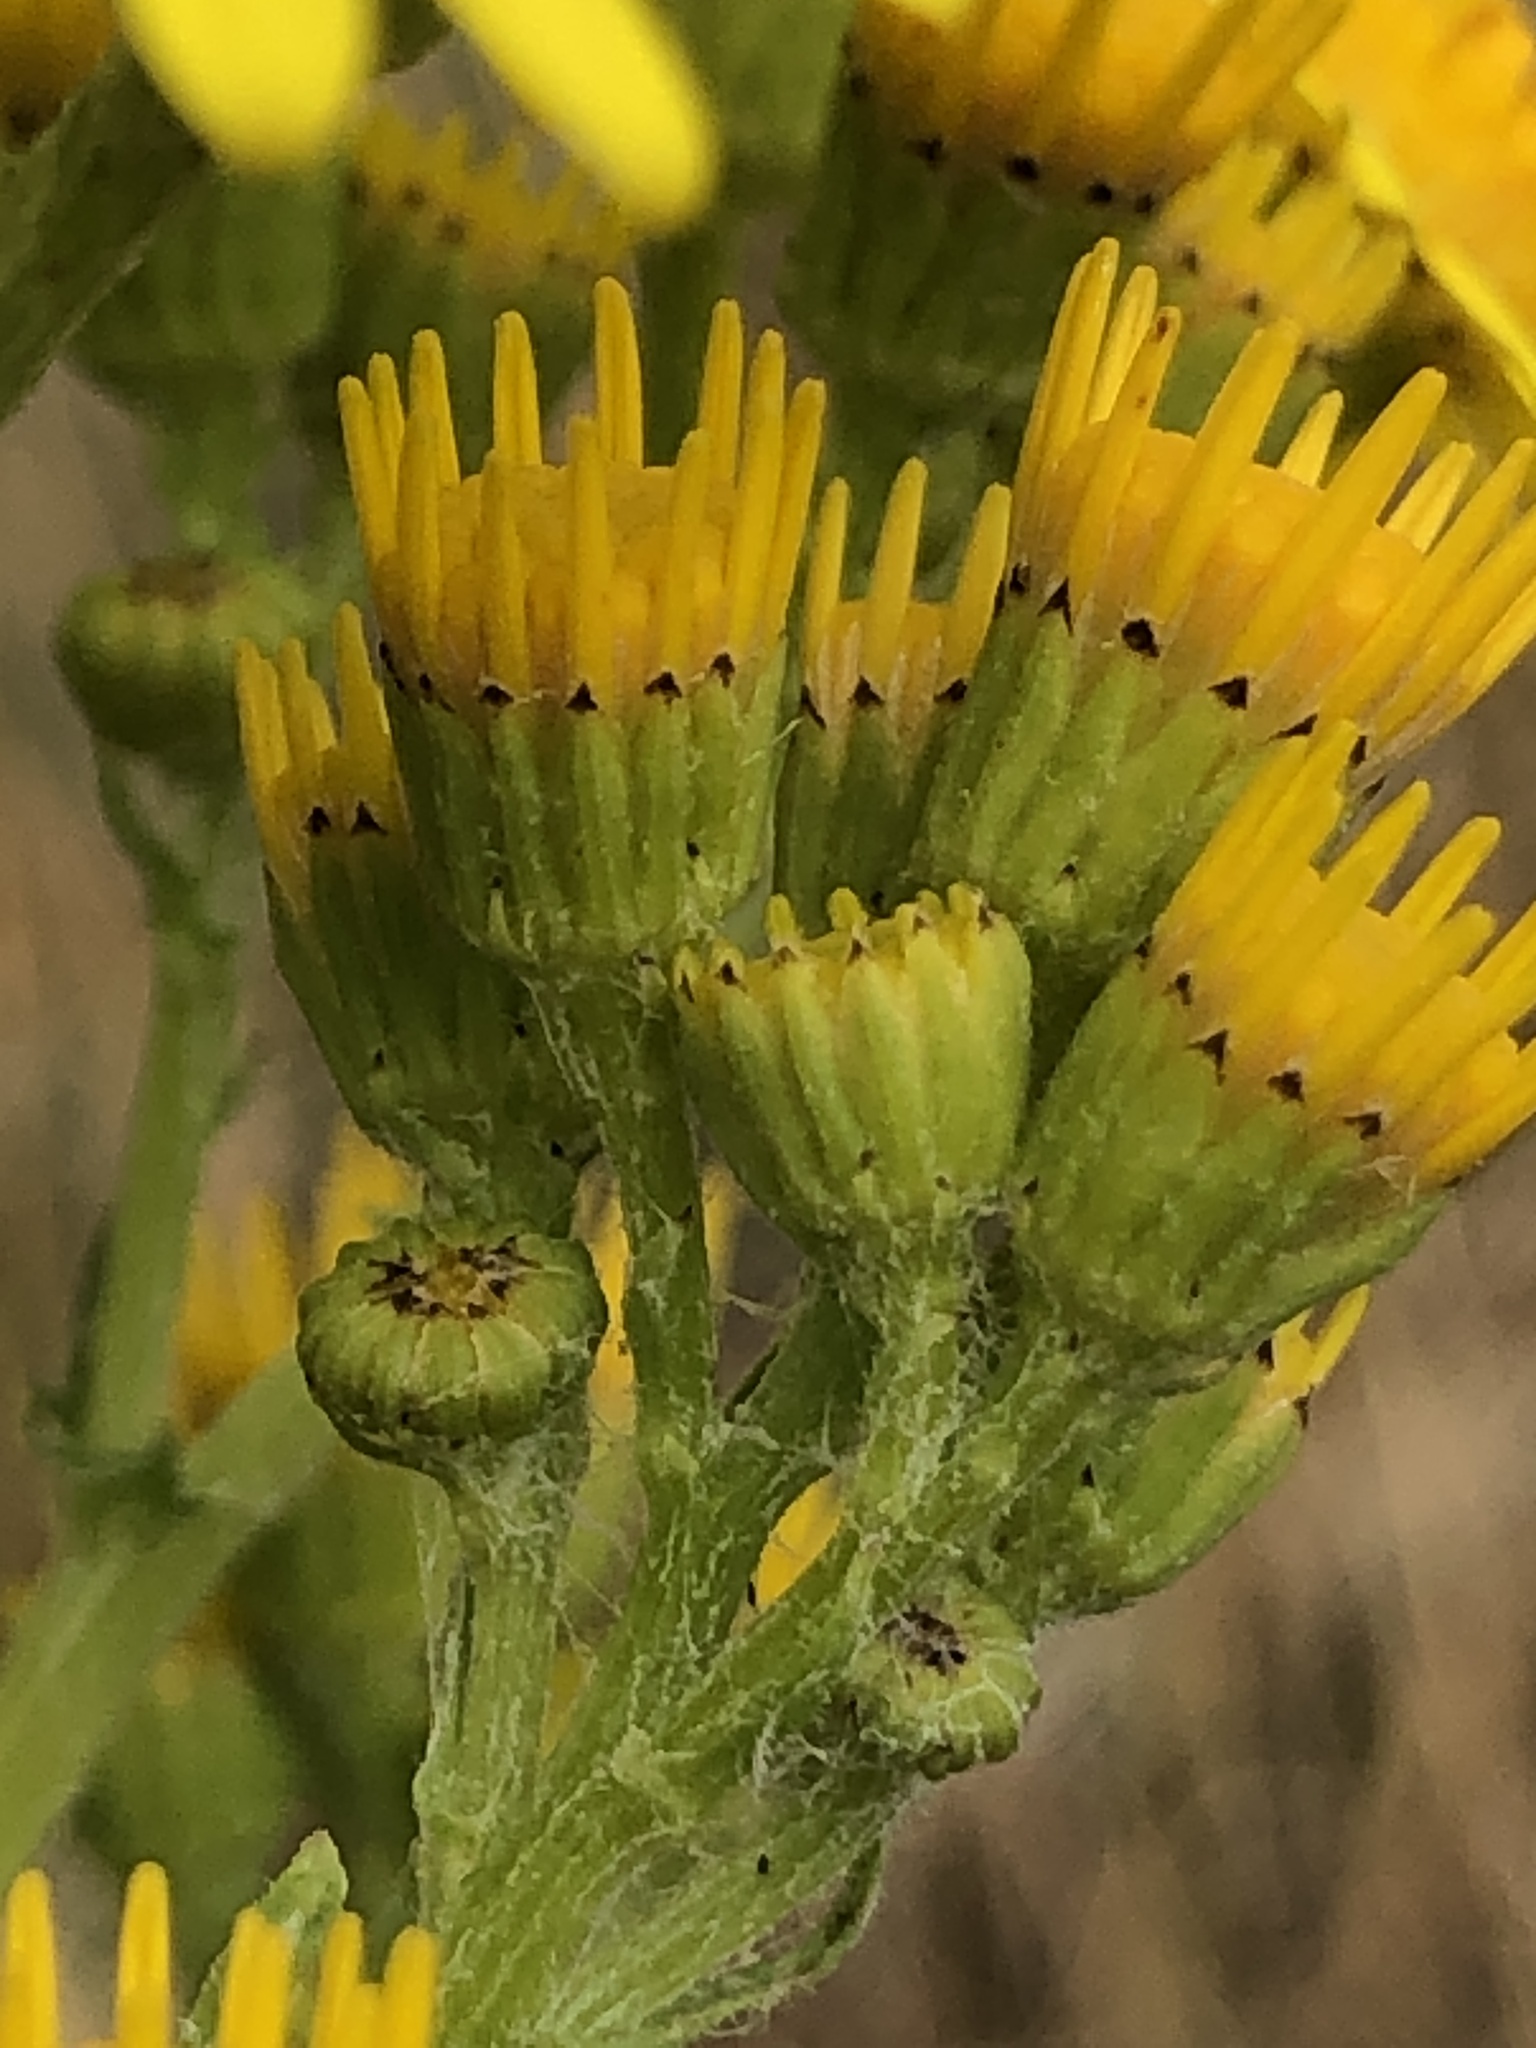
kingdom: Plantae
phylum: Tracheophyta
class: Magnoliopsida
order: Asterales
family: Asteraceae
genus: Jacobaea
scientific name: Jacobaea vulgaris
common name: Stinking willie
